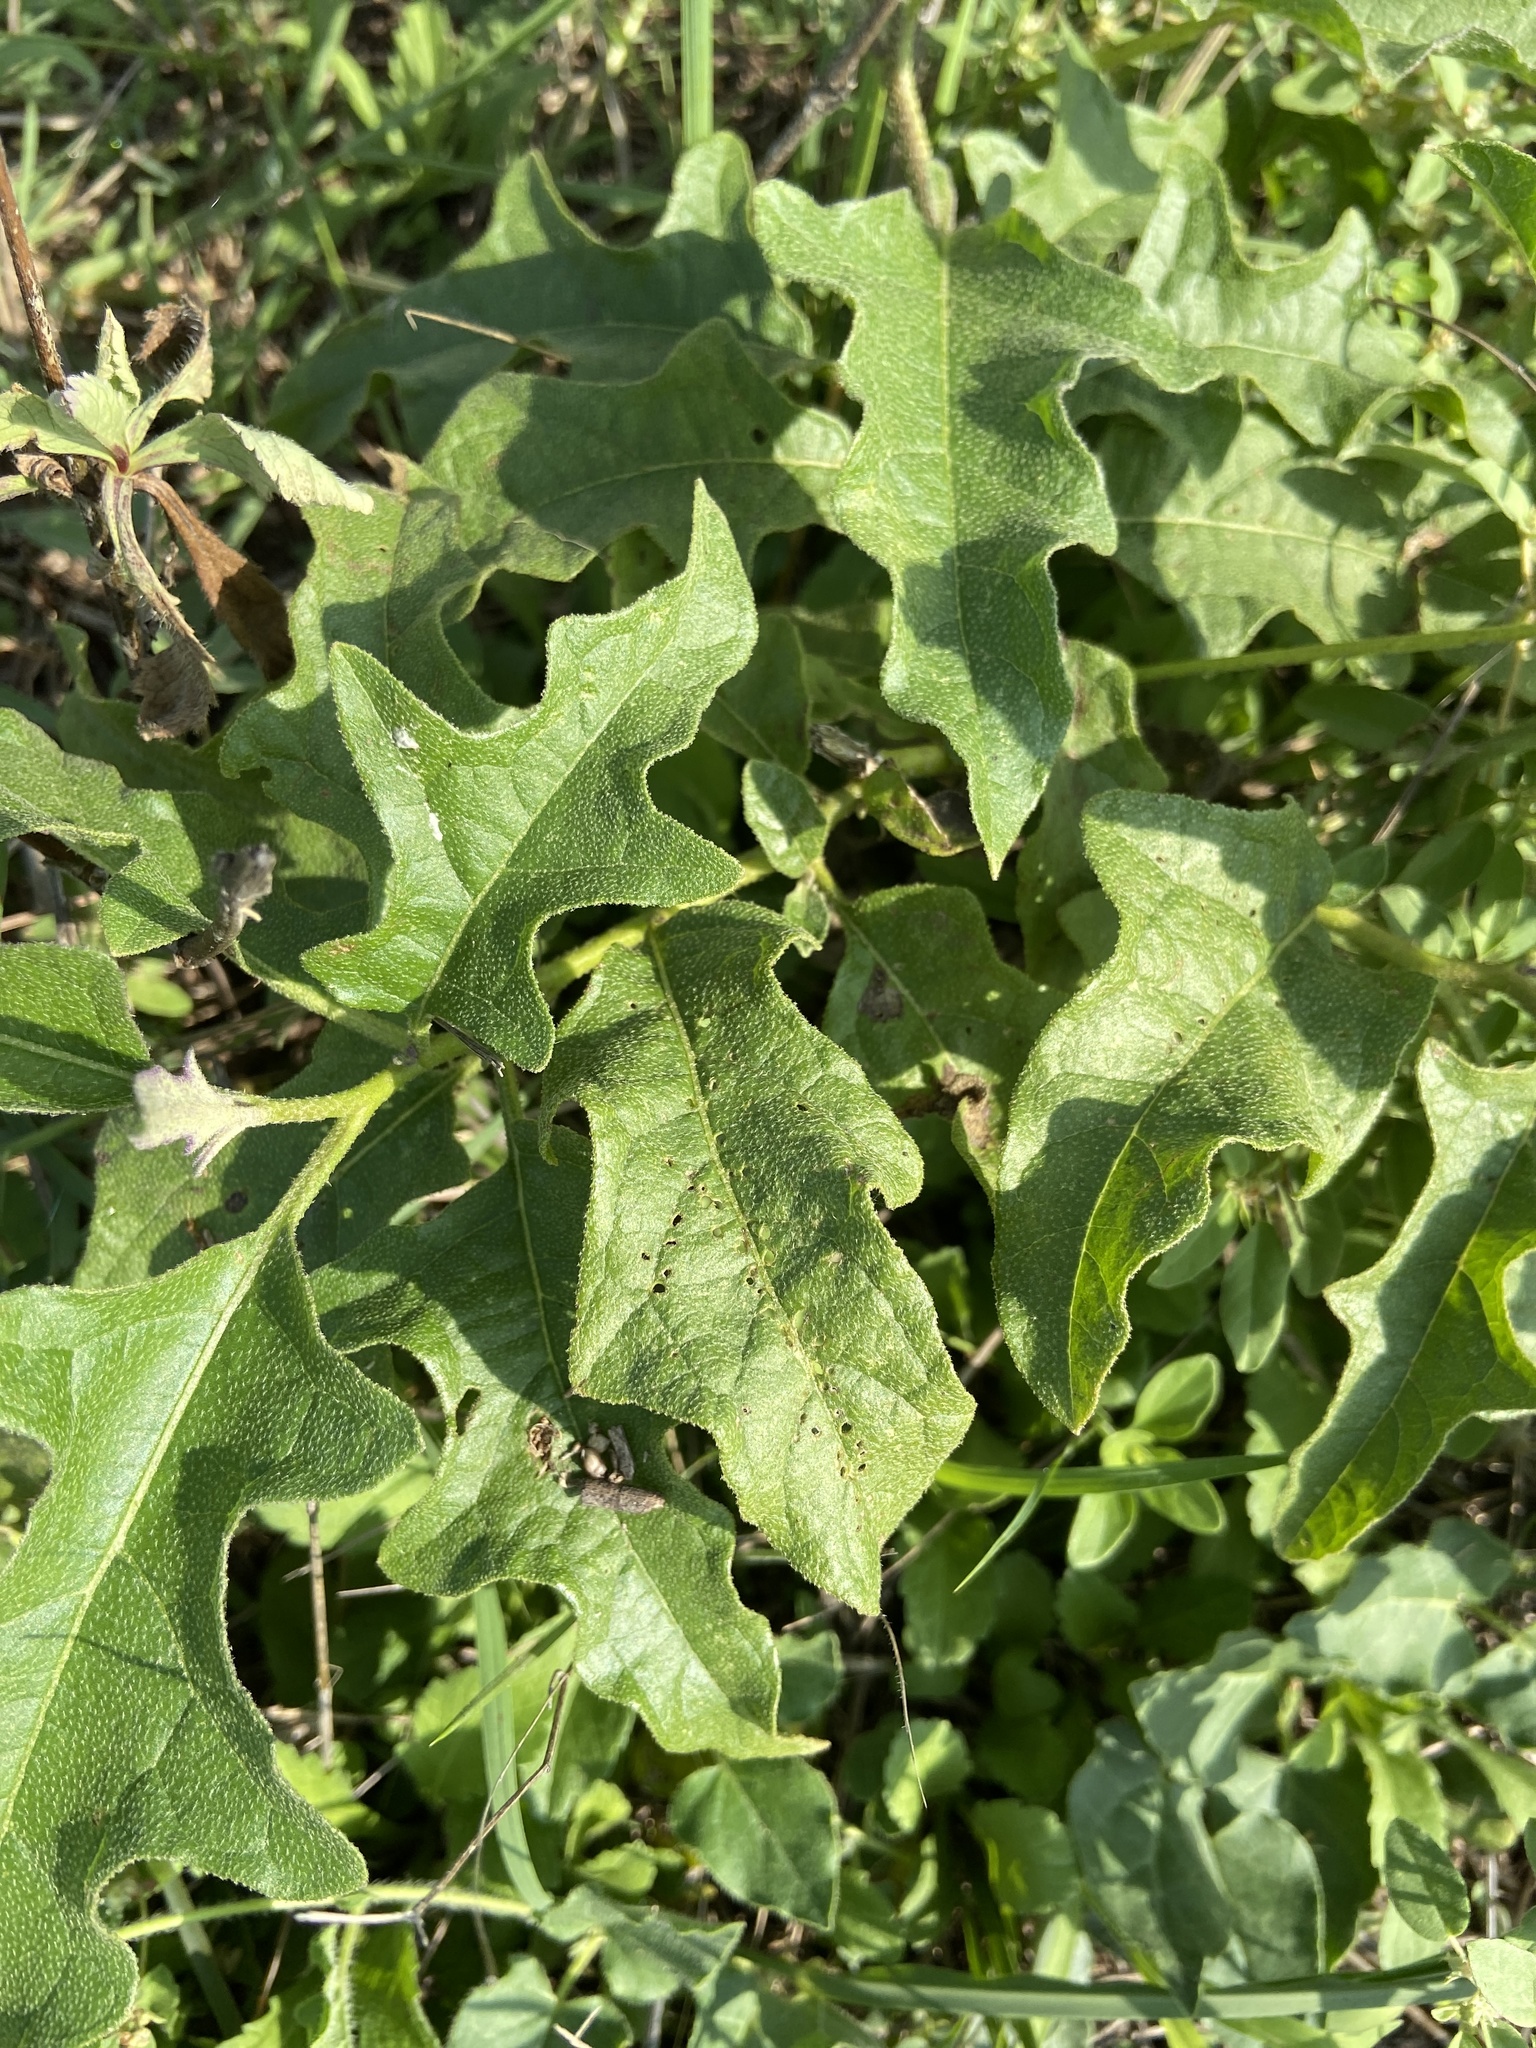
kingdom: Plantae
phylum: Tracheophyta
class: Magnoliopsida
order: Solanales
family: Solanaceae
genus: Solanum
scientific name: Solanum dimidiatum
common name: Carolina horse-nettle
